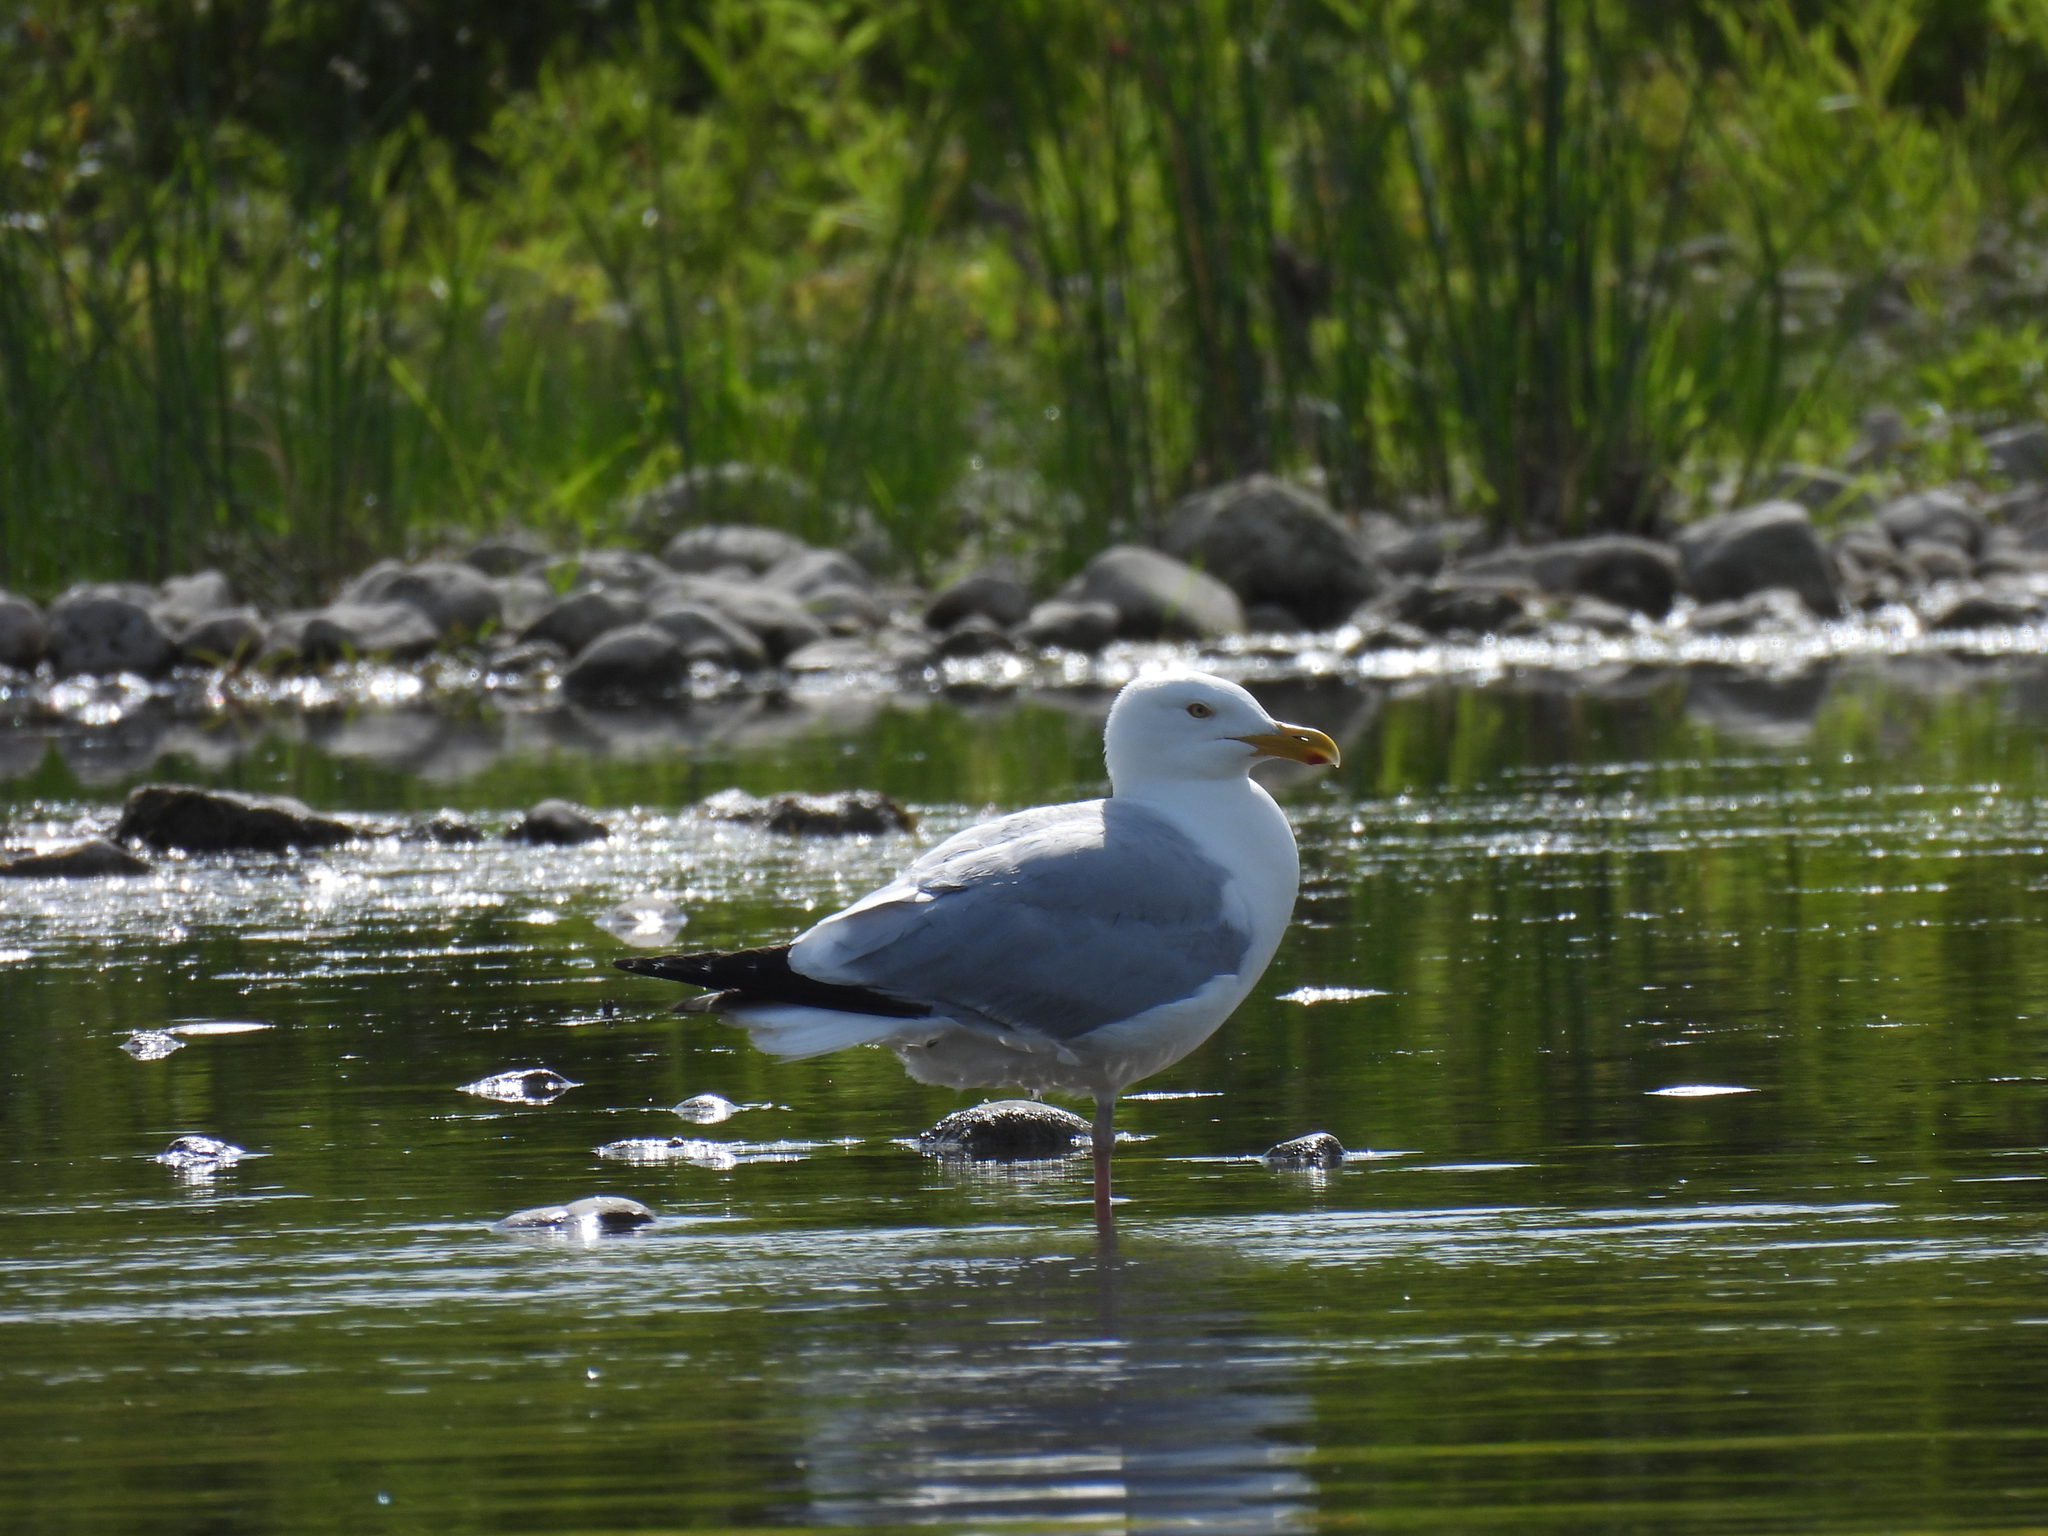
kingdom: Animalia
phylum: Chordata
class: Aves
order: Charadriiformes
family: Laridae
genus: Larus
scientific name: Larus argentatus
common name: Herring gull
